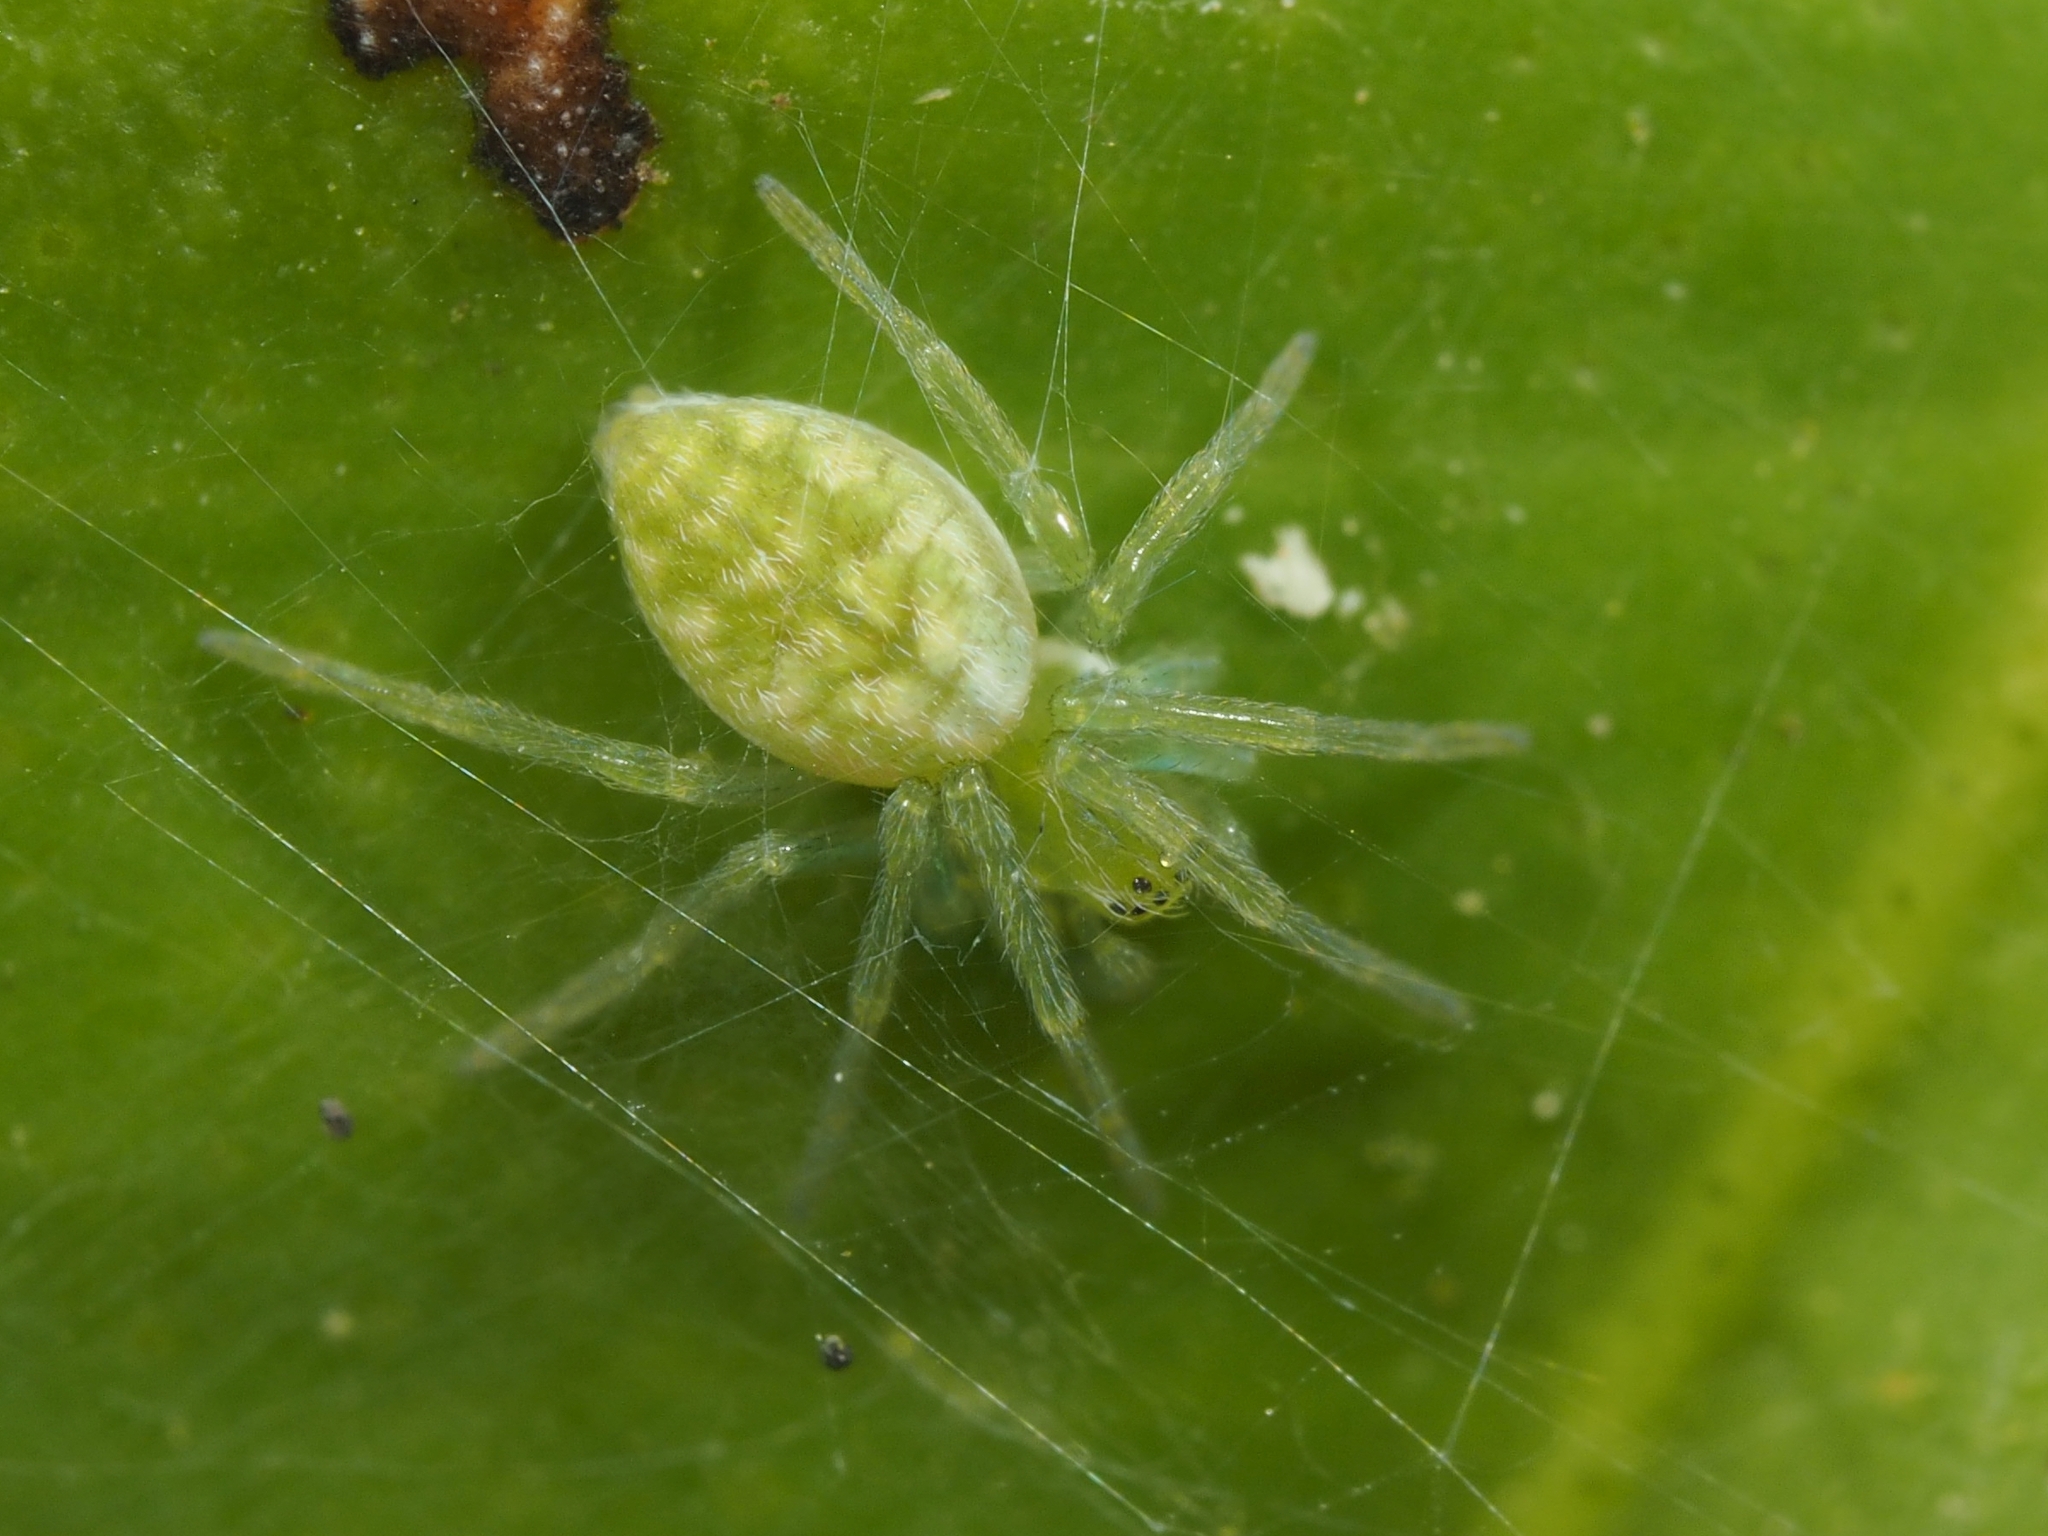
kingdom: Animalia
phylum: Arthropoda
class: Arachnida
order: Araneae
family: Dictynidae
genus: Nigma
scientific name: Nigma walckenaeri
